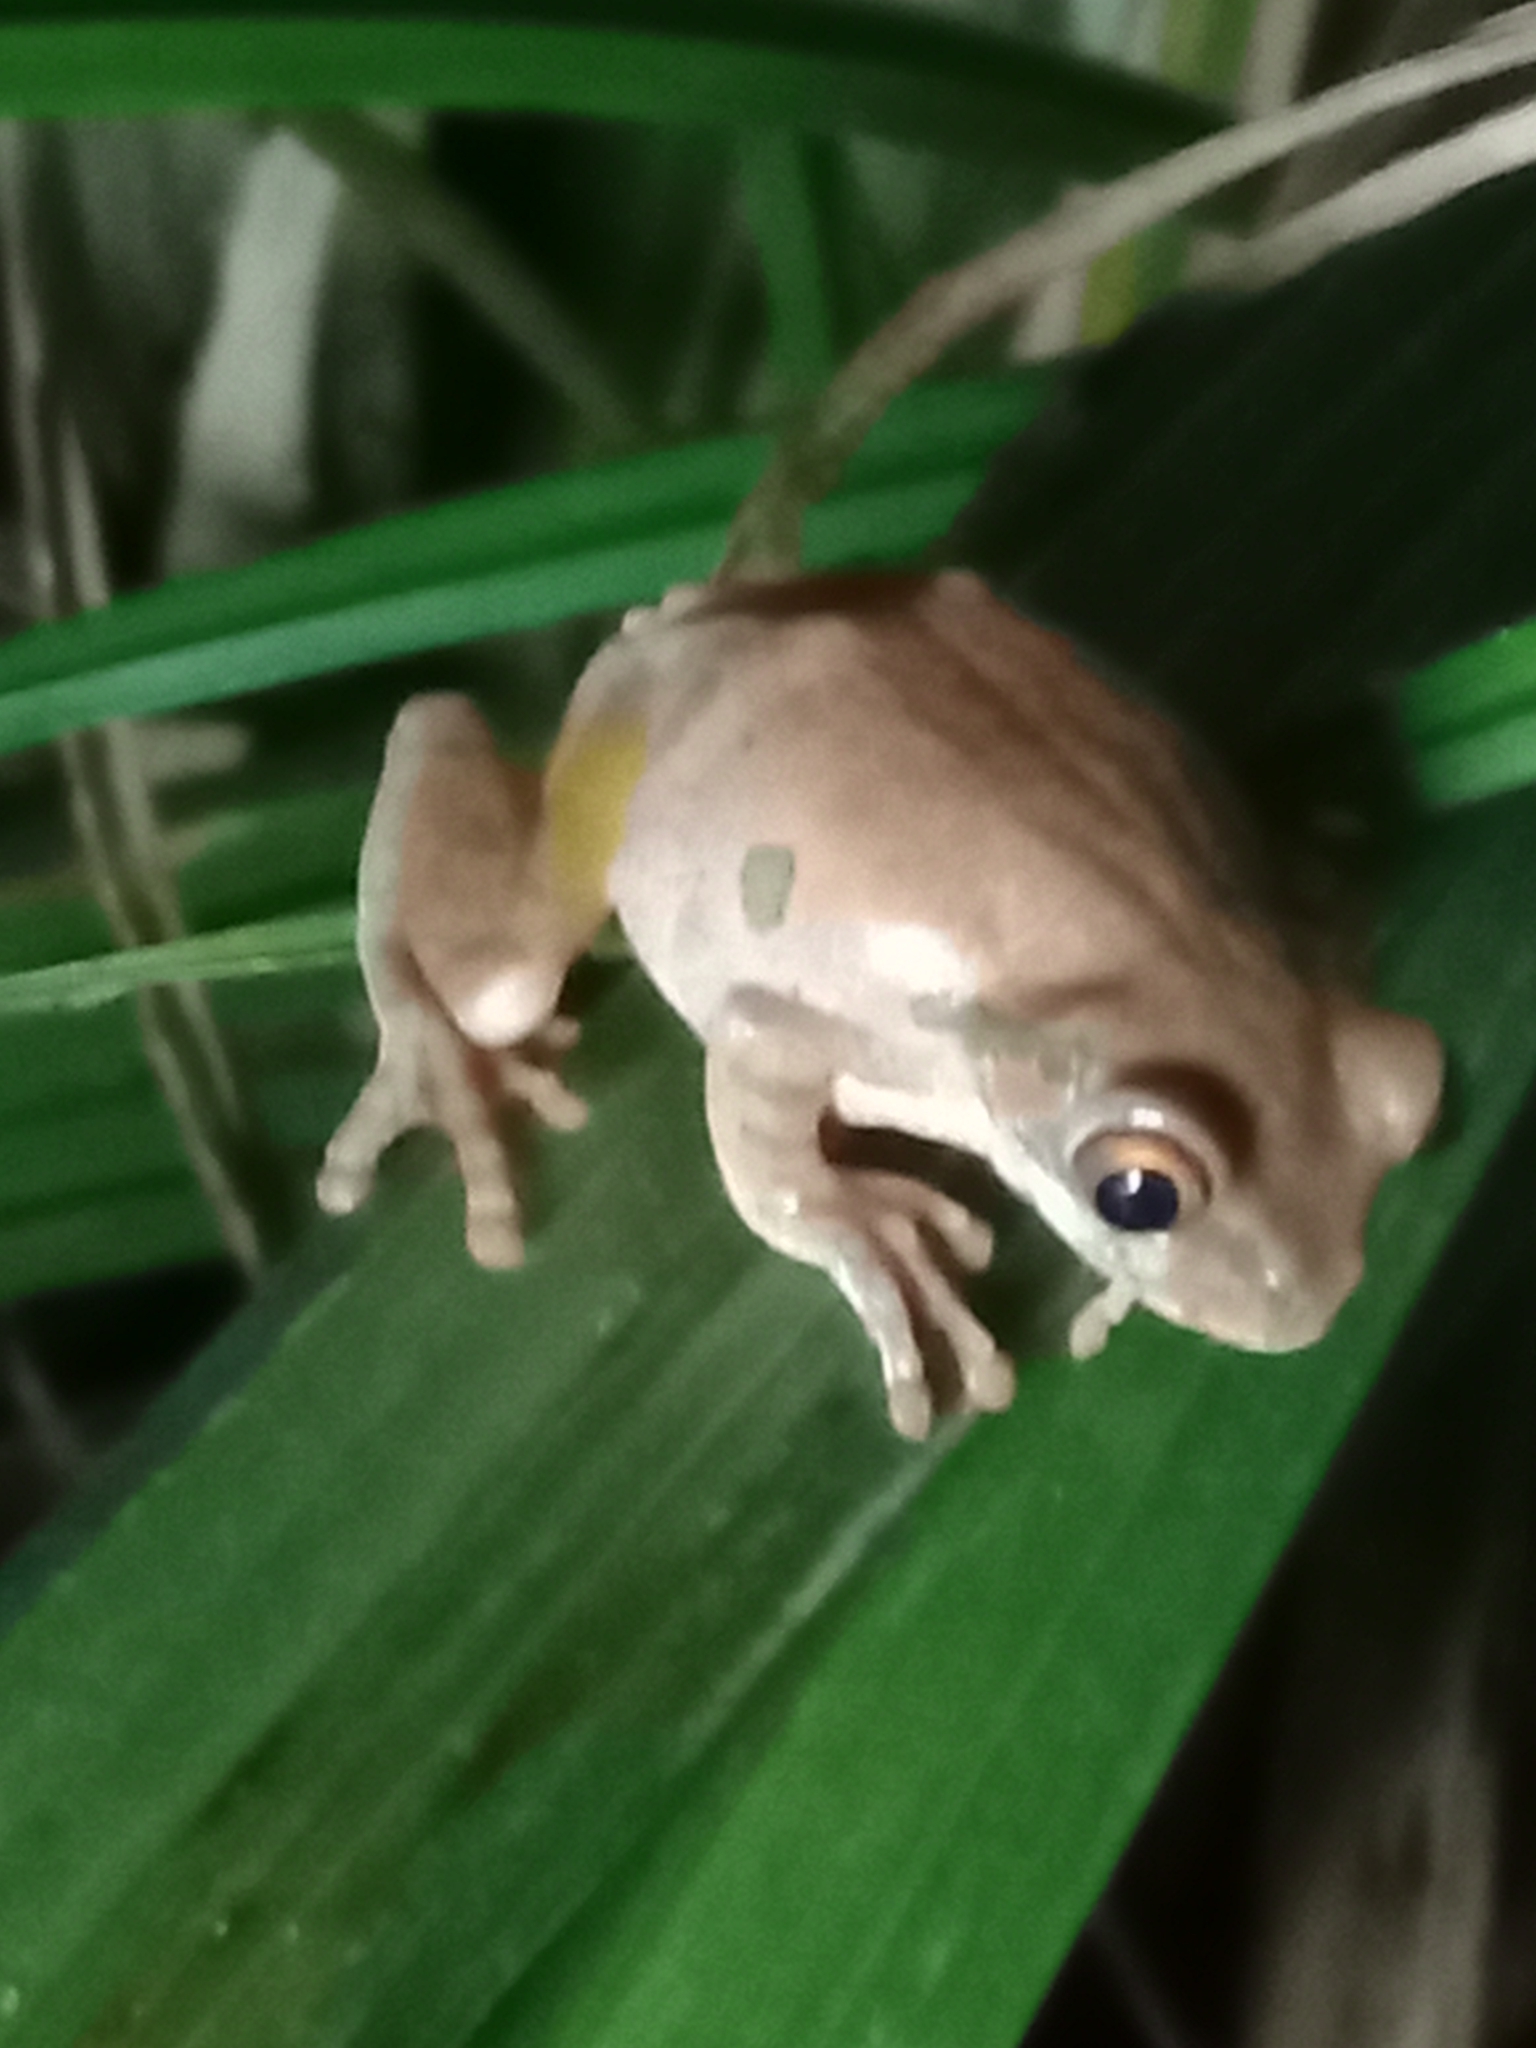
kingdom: Animalia
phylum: Chordata
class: Amphibia
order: Anura
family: Arthroleptidae
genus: Leptopelis
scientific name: Leptopelis natalensis
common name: Natal tree frog
